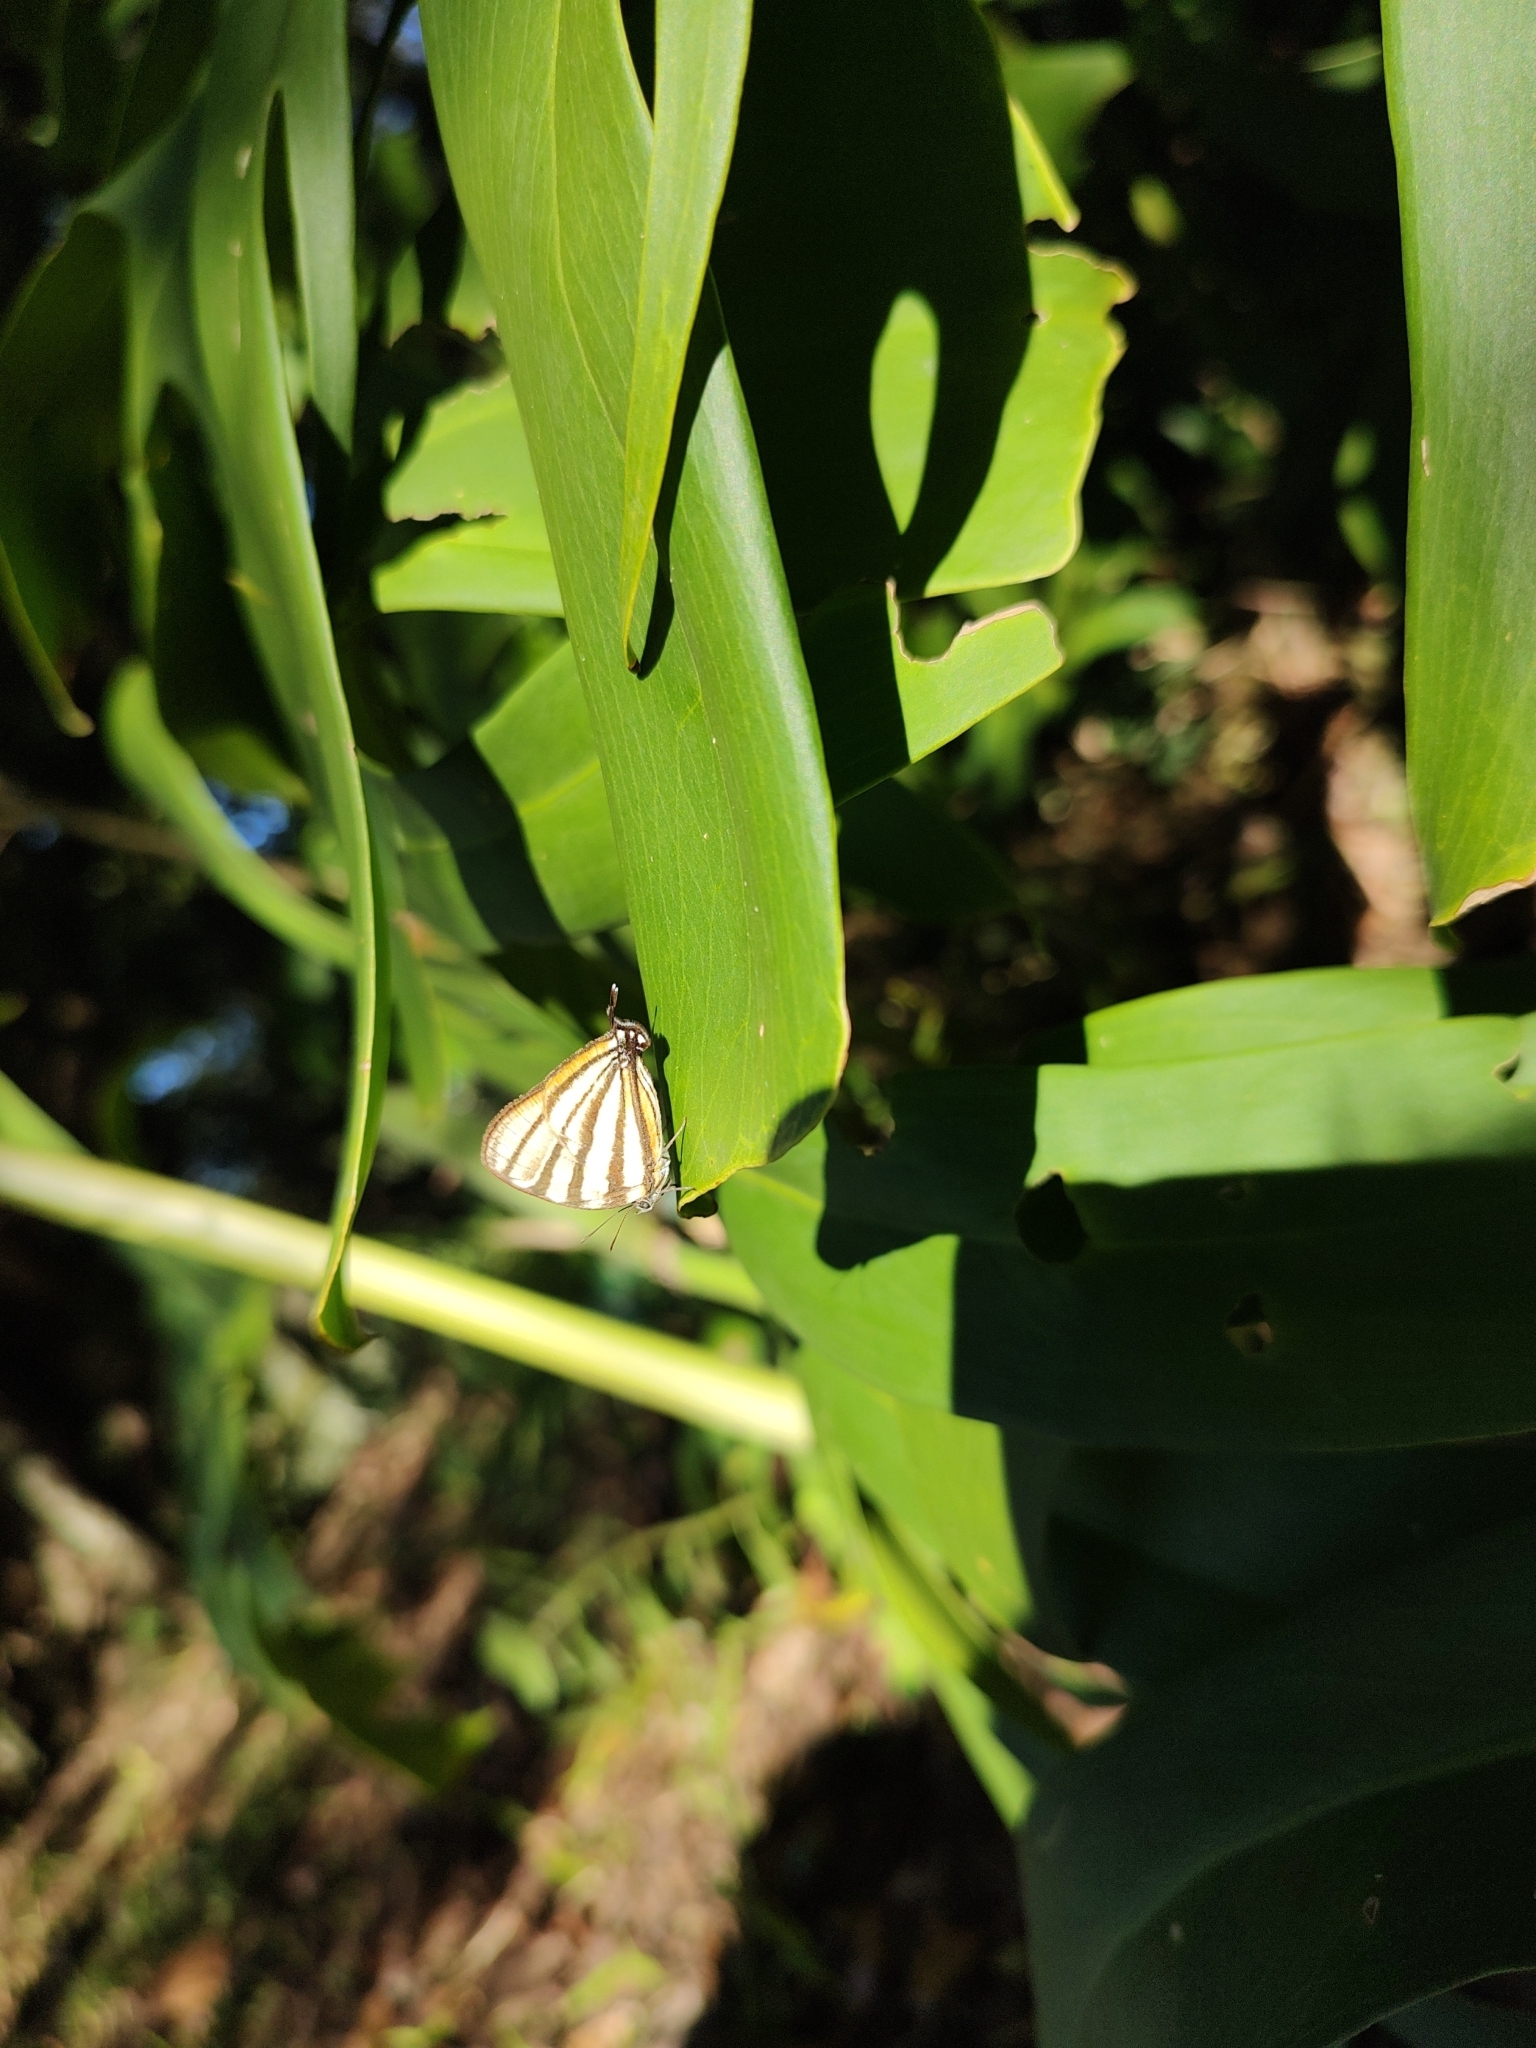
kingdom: Animalia
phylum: Arthropoda
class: Insecta
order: Lepidoptera
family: Lycaenidae
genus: Arawacus
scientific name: Arawacus separata
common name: Separated stripestreak
